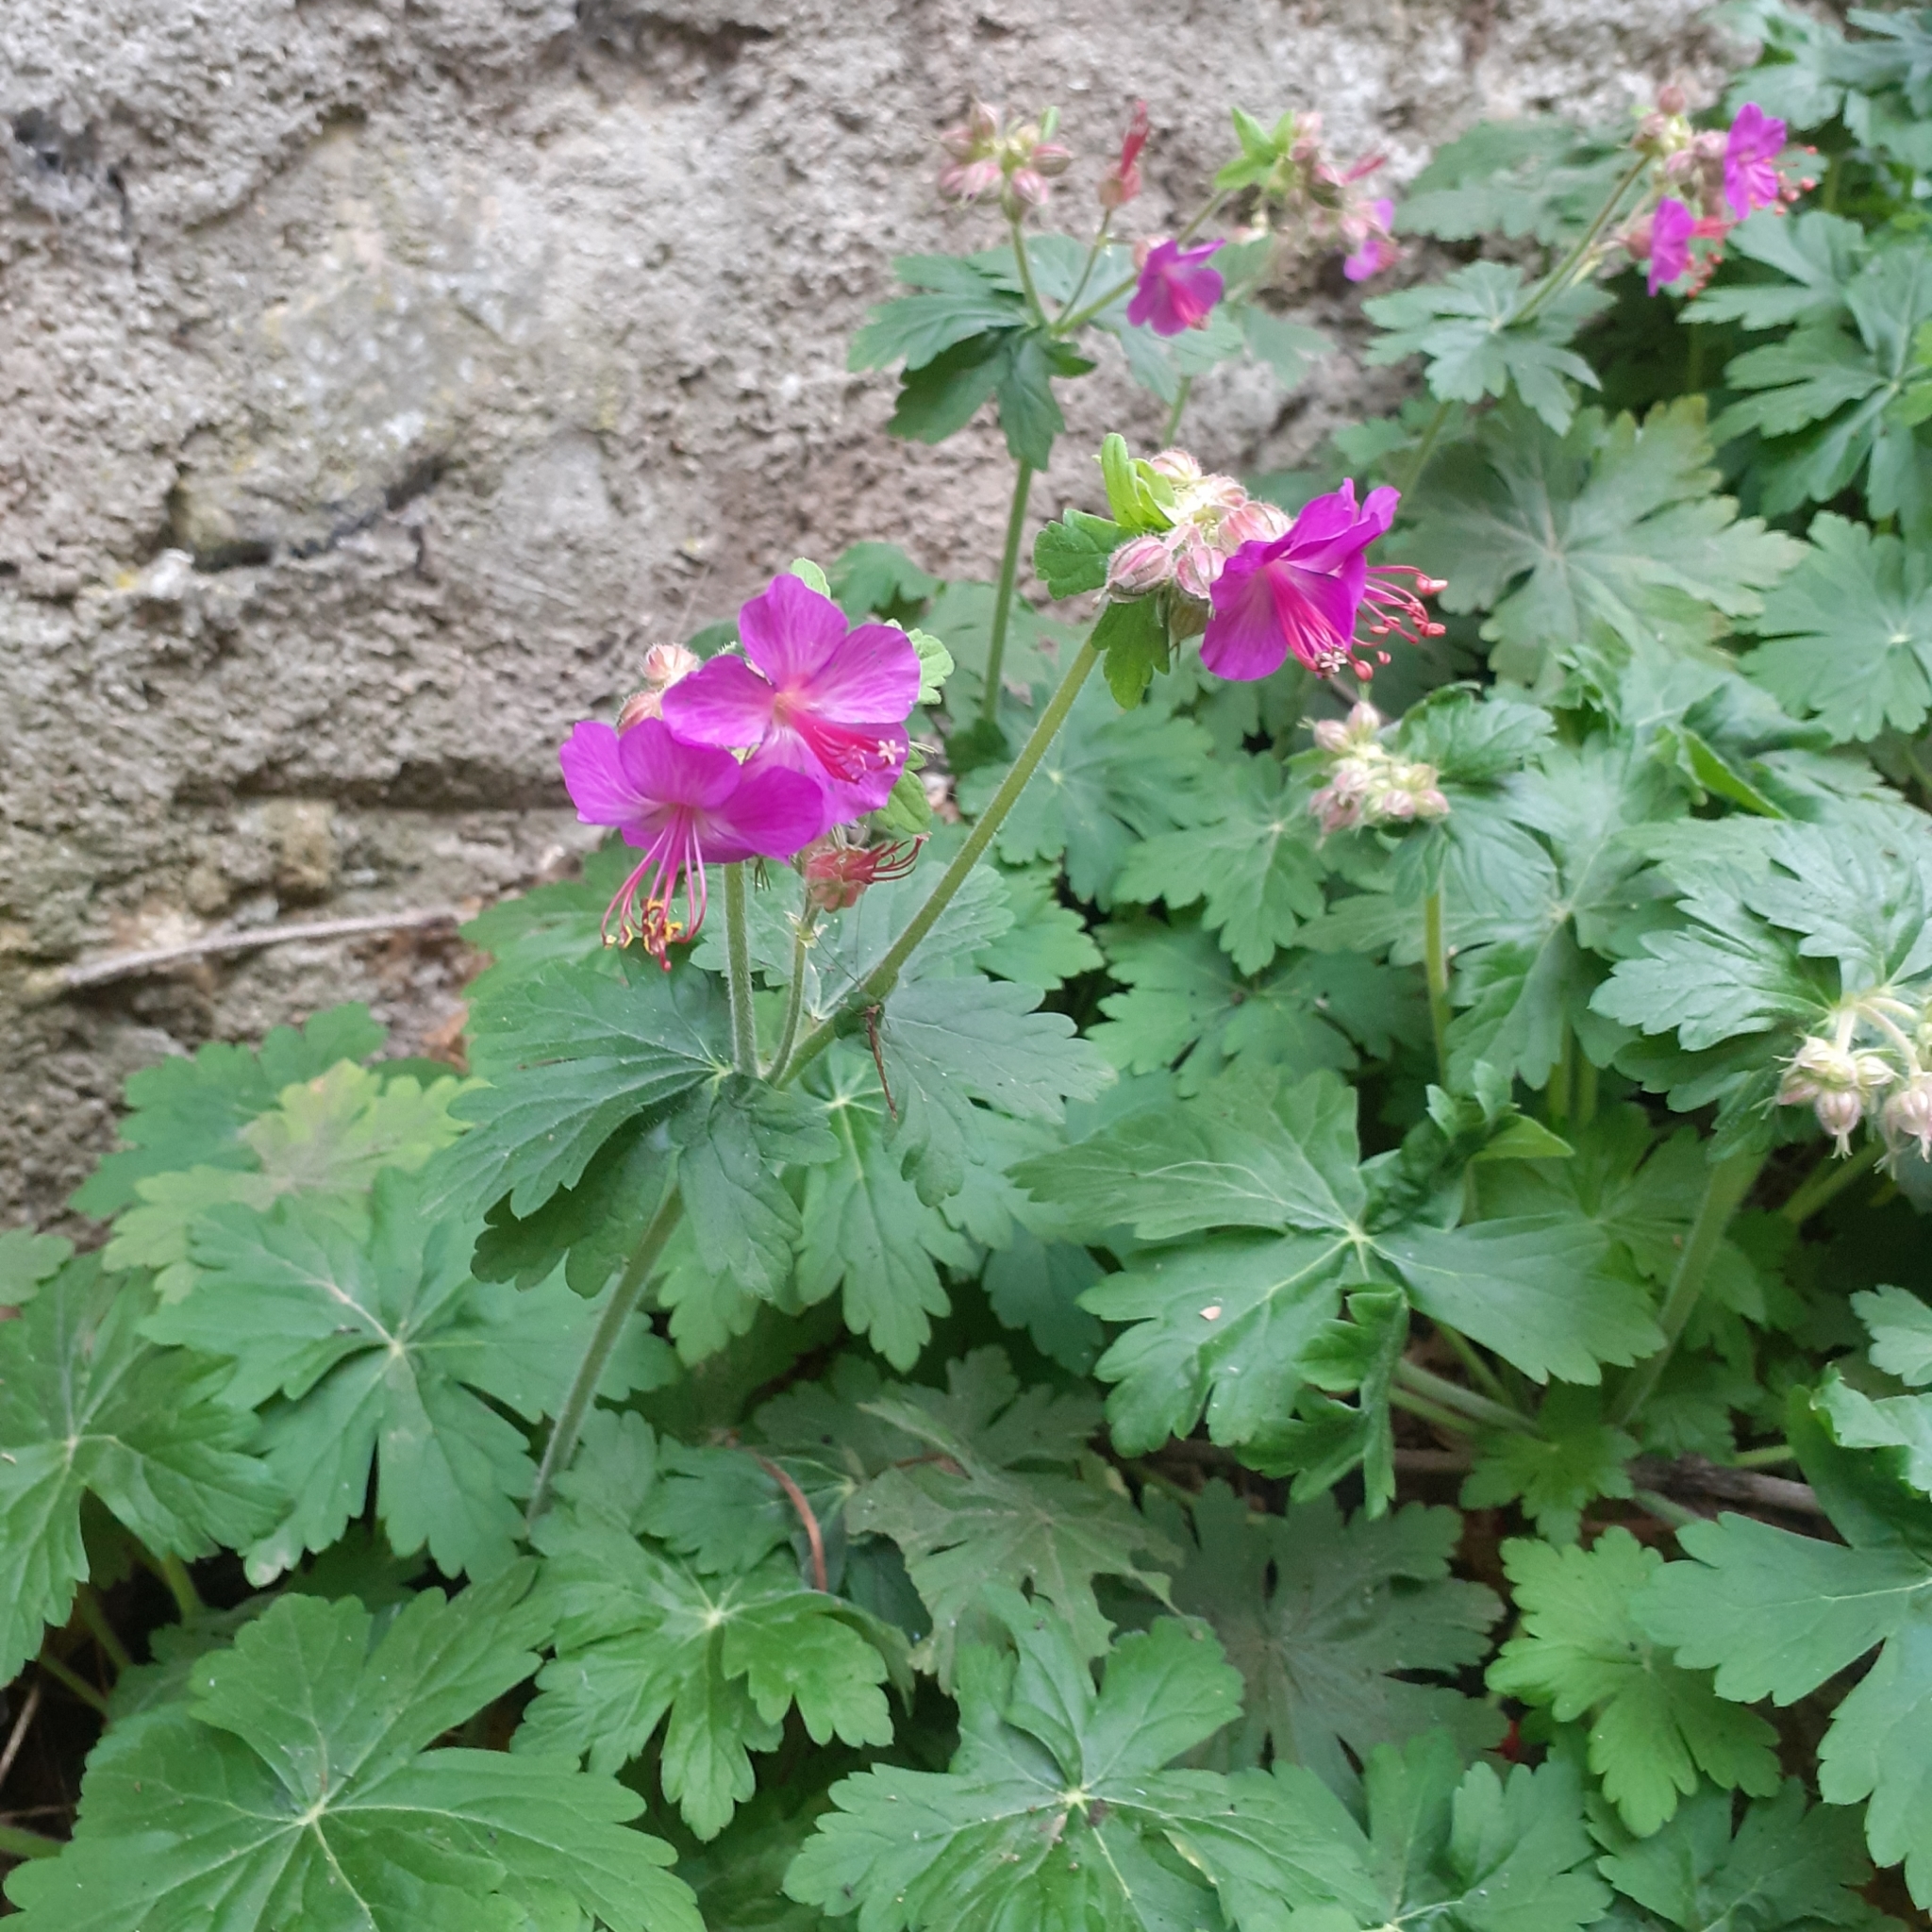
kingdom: Plantae
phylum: Tracheophyta
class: Magnoliopsida
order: Geraniales
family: Geraniaceae
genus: Geranium
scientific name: Geranium macrorrhizum
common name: Rock crane's-bill
